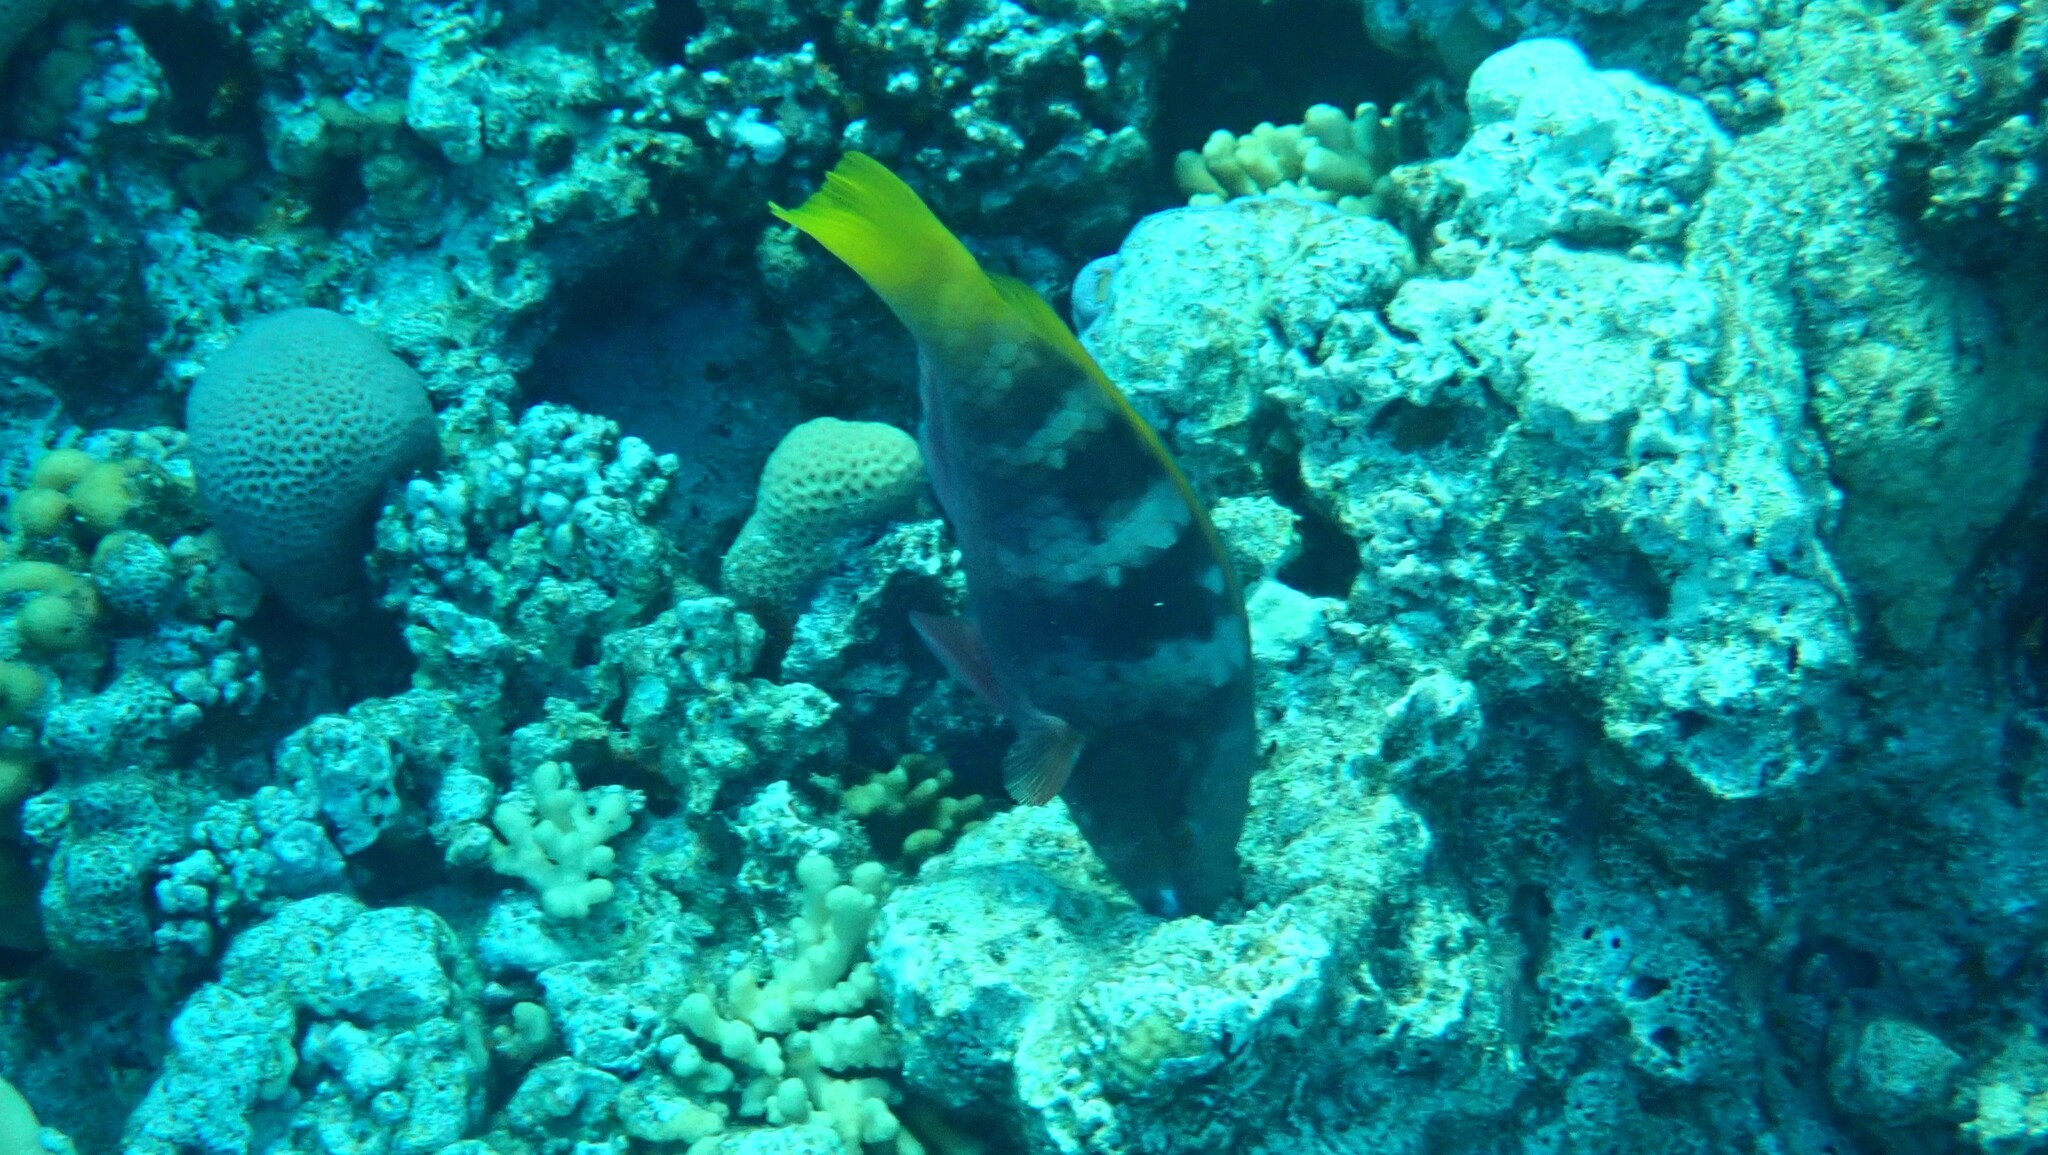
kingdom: Animalia
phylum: Chordata
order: Perciformes
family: Scaridae
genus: Scarus
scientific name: Scarus ferrugineus
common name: Rusty parrotfish
